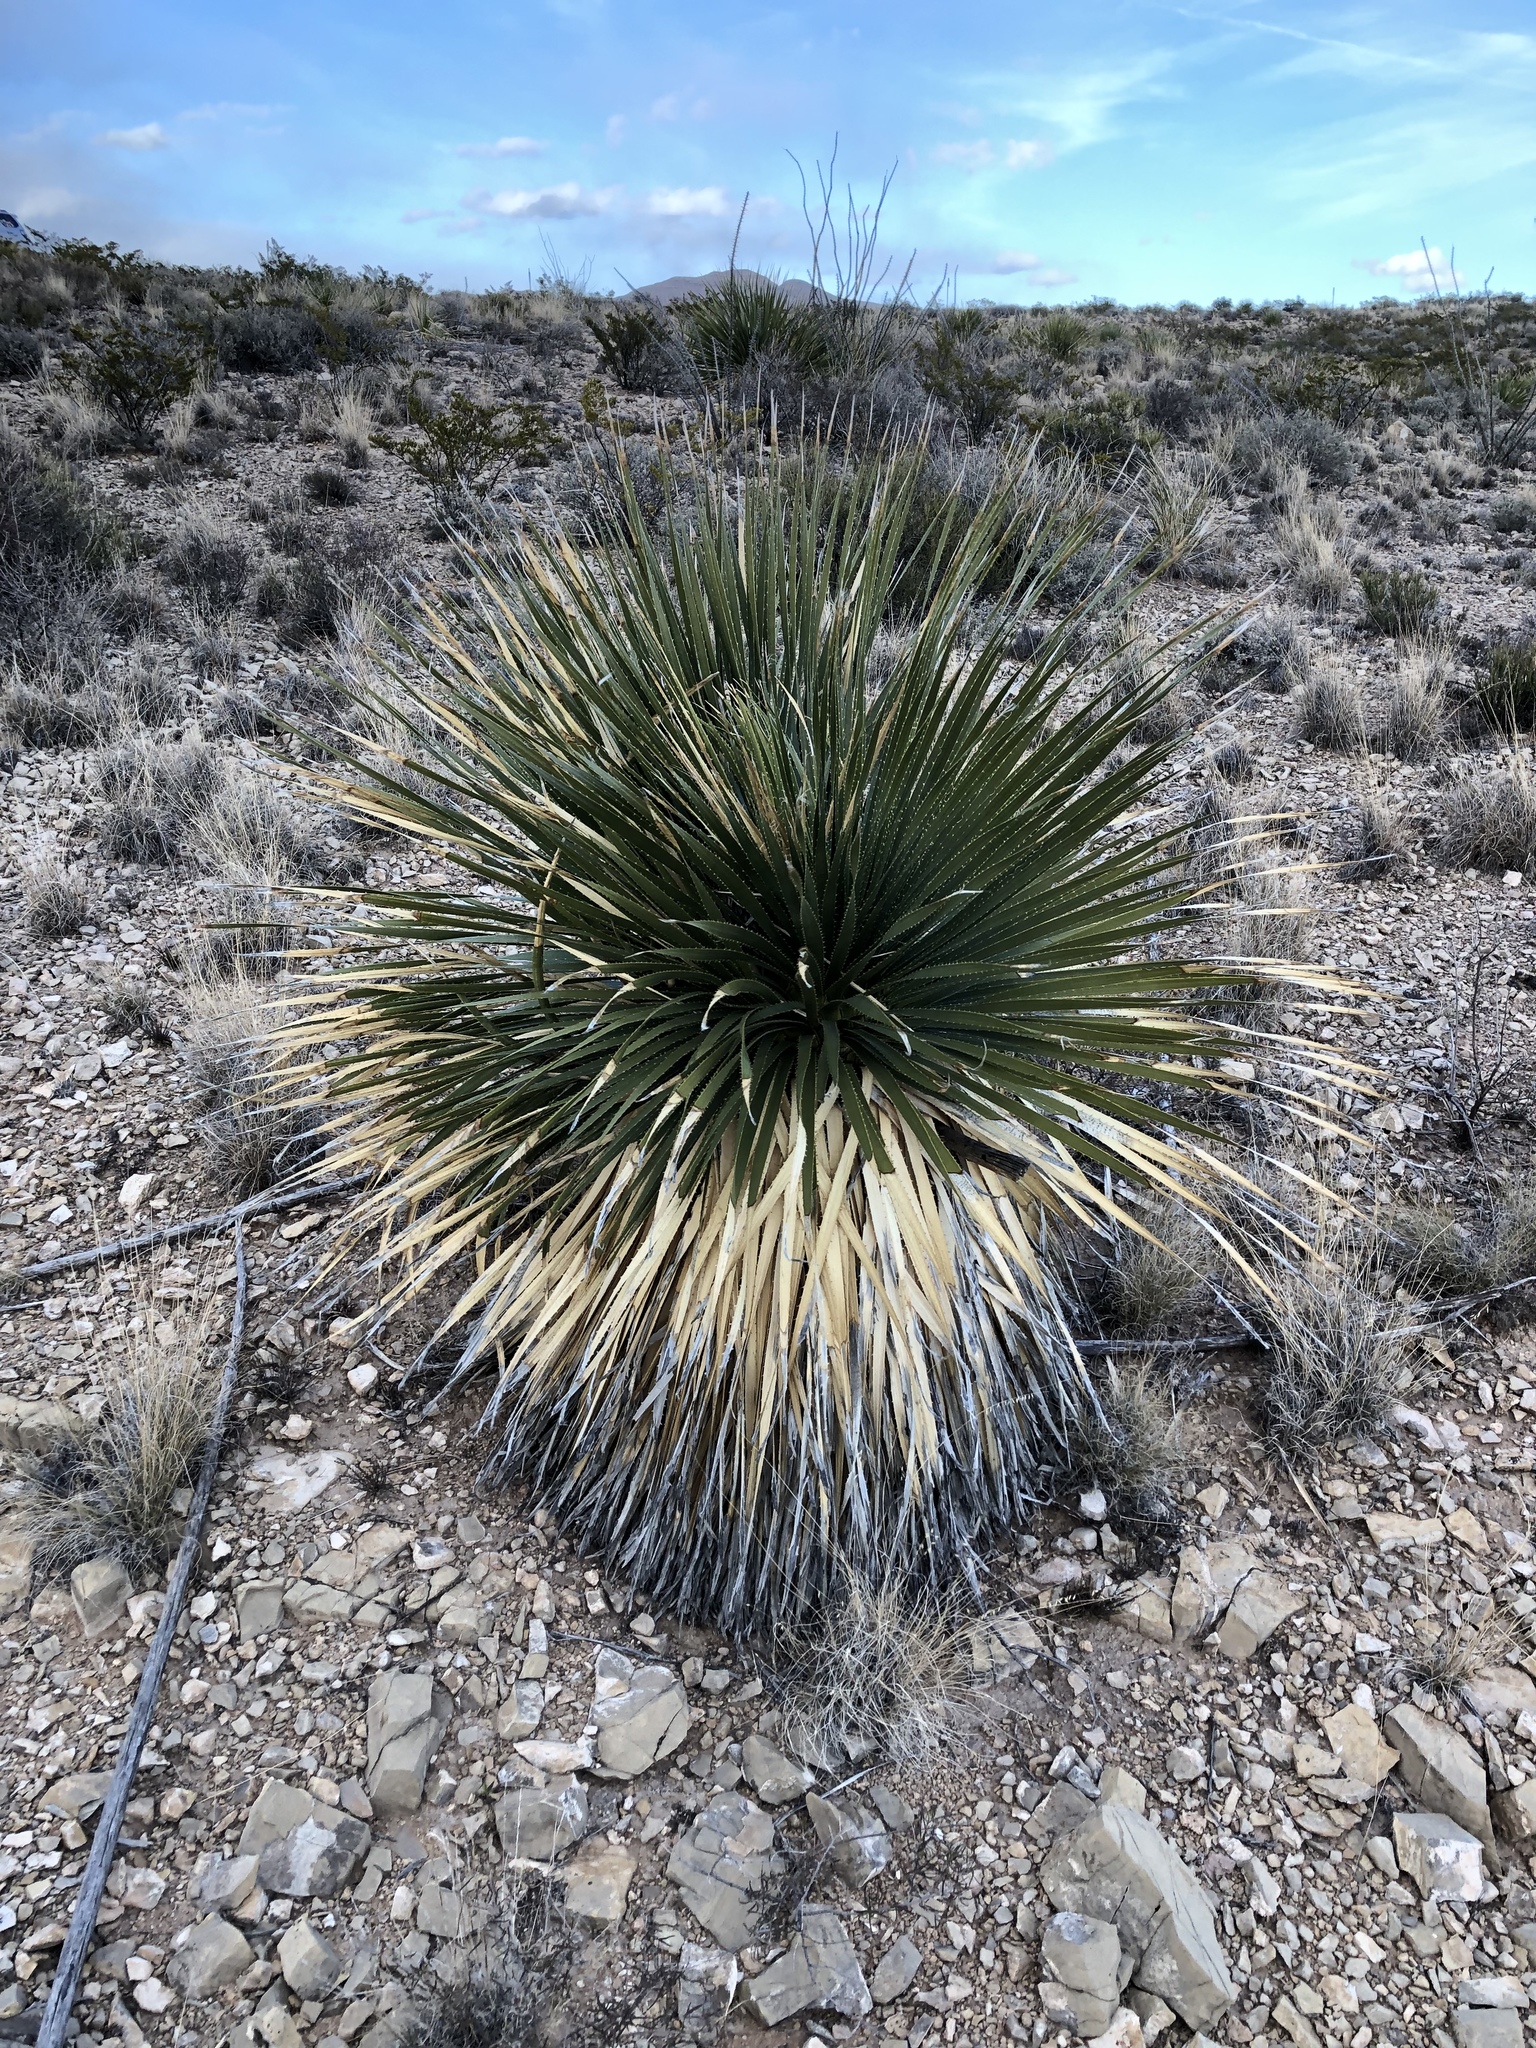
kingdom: Plantae
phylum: Tracheophyta
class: Liliopsida
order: Asparagales
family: Asparagaceae
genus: Dasylirion
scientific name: Dasylirion wheeleri
